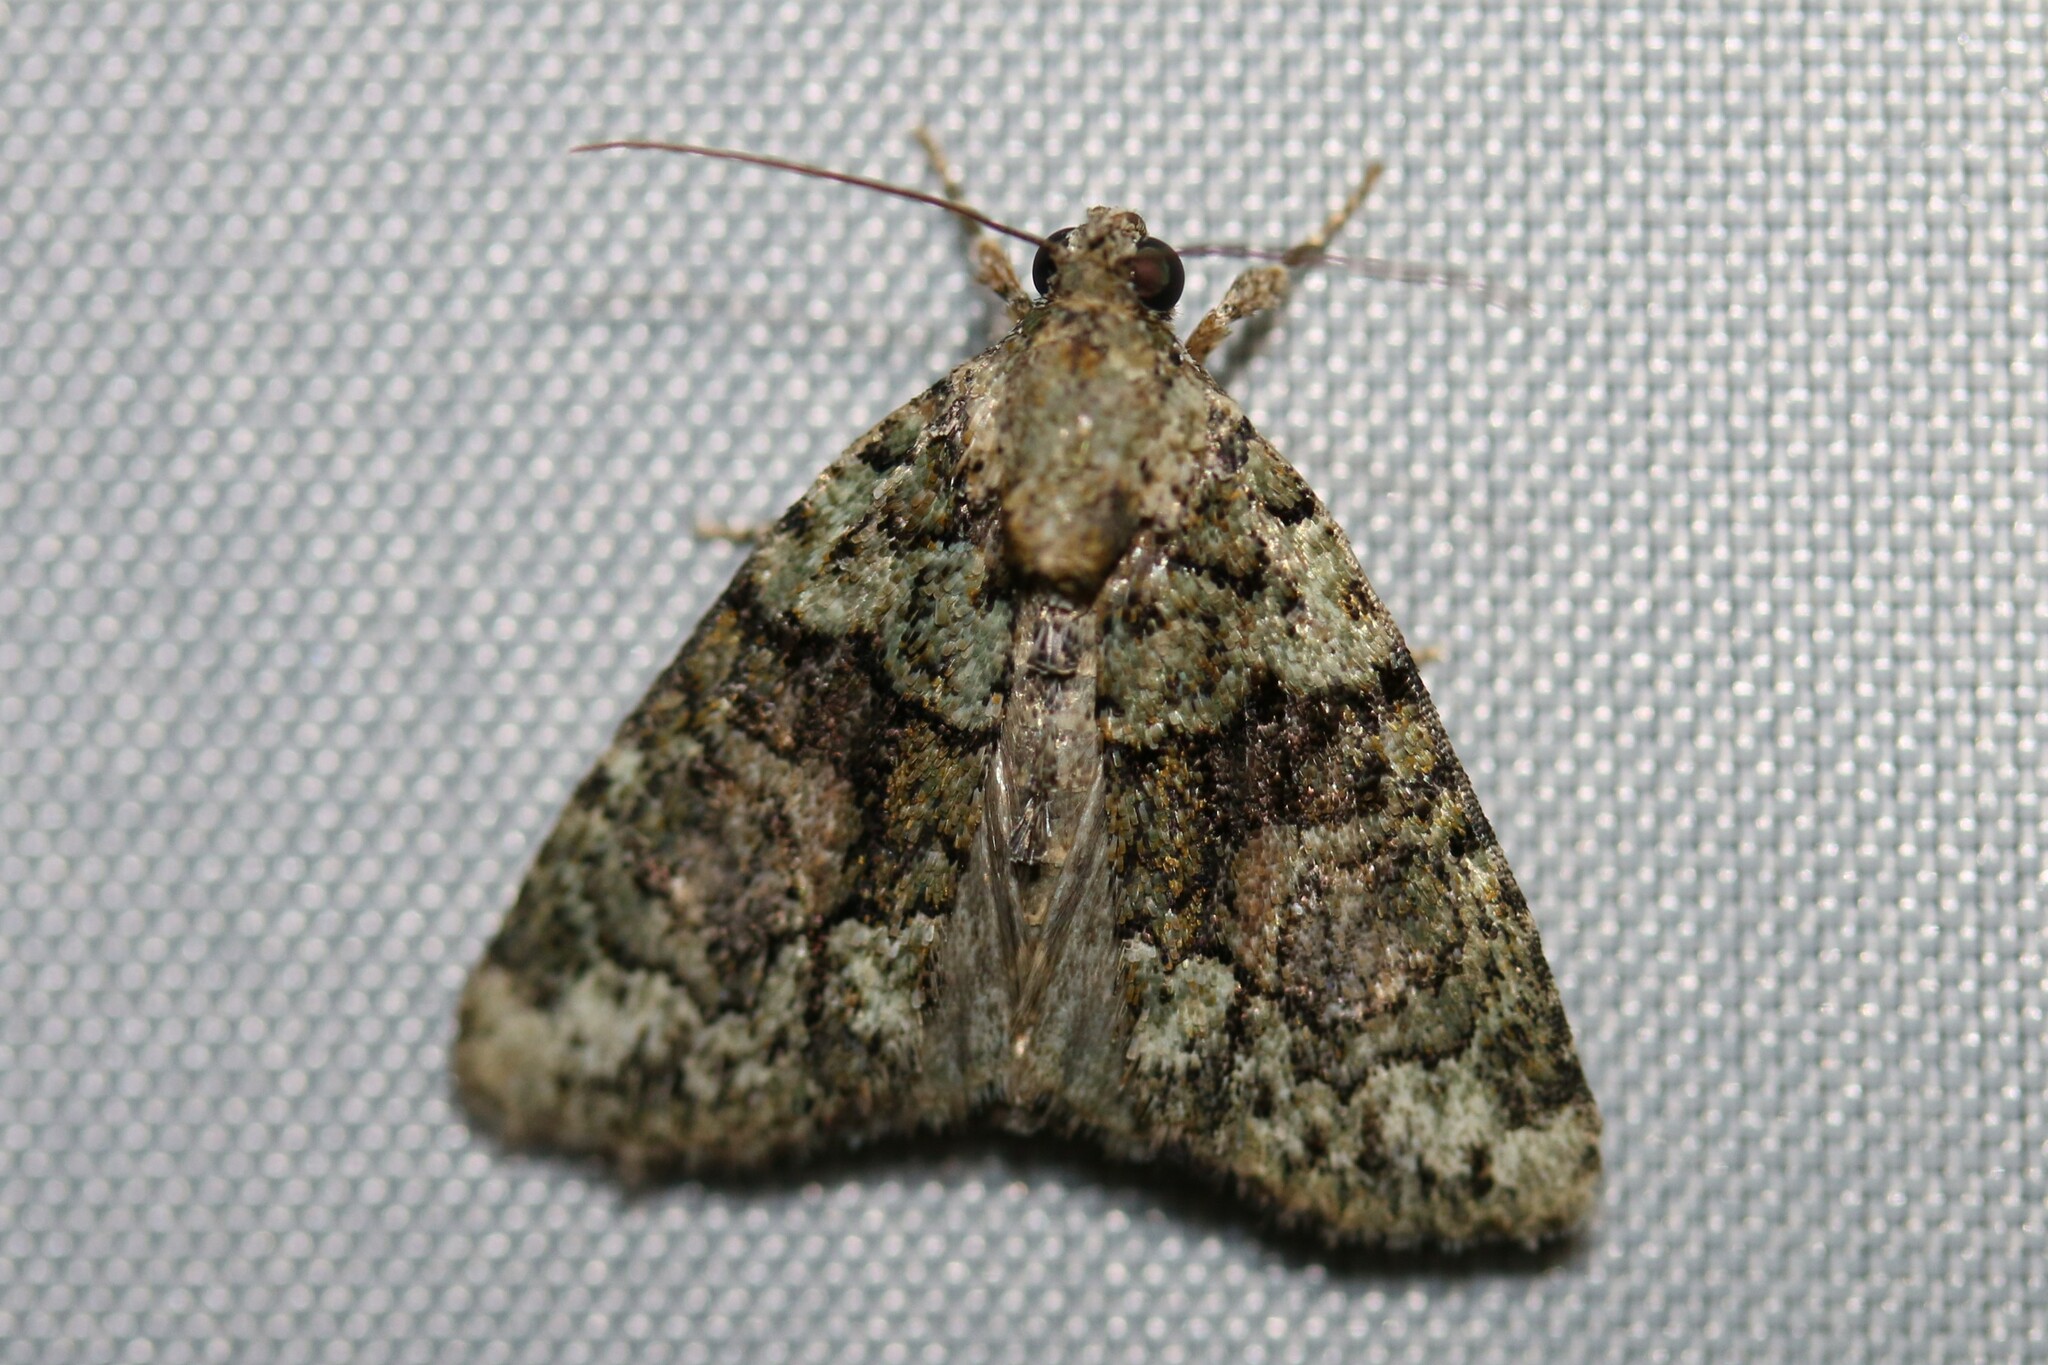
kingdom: Animalia
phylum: Arthropoda
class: Insecta
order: Lepidoptera
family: Noctuidae
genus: Cryphia
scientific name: Cryphia algae
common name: Tree-lichen beauty
